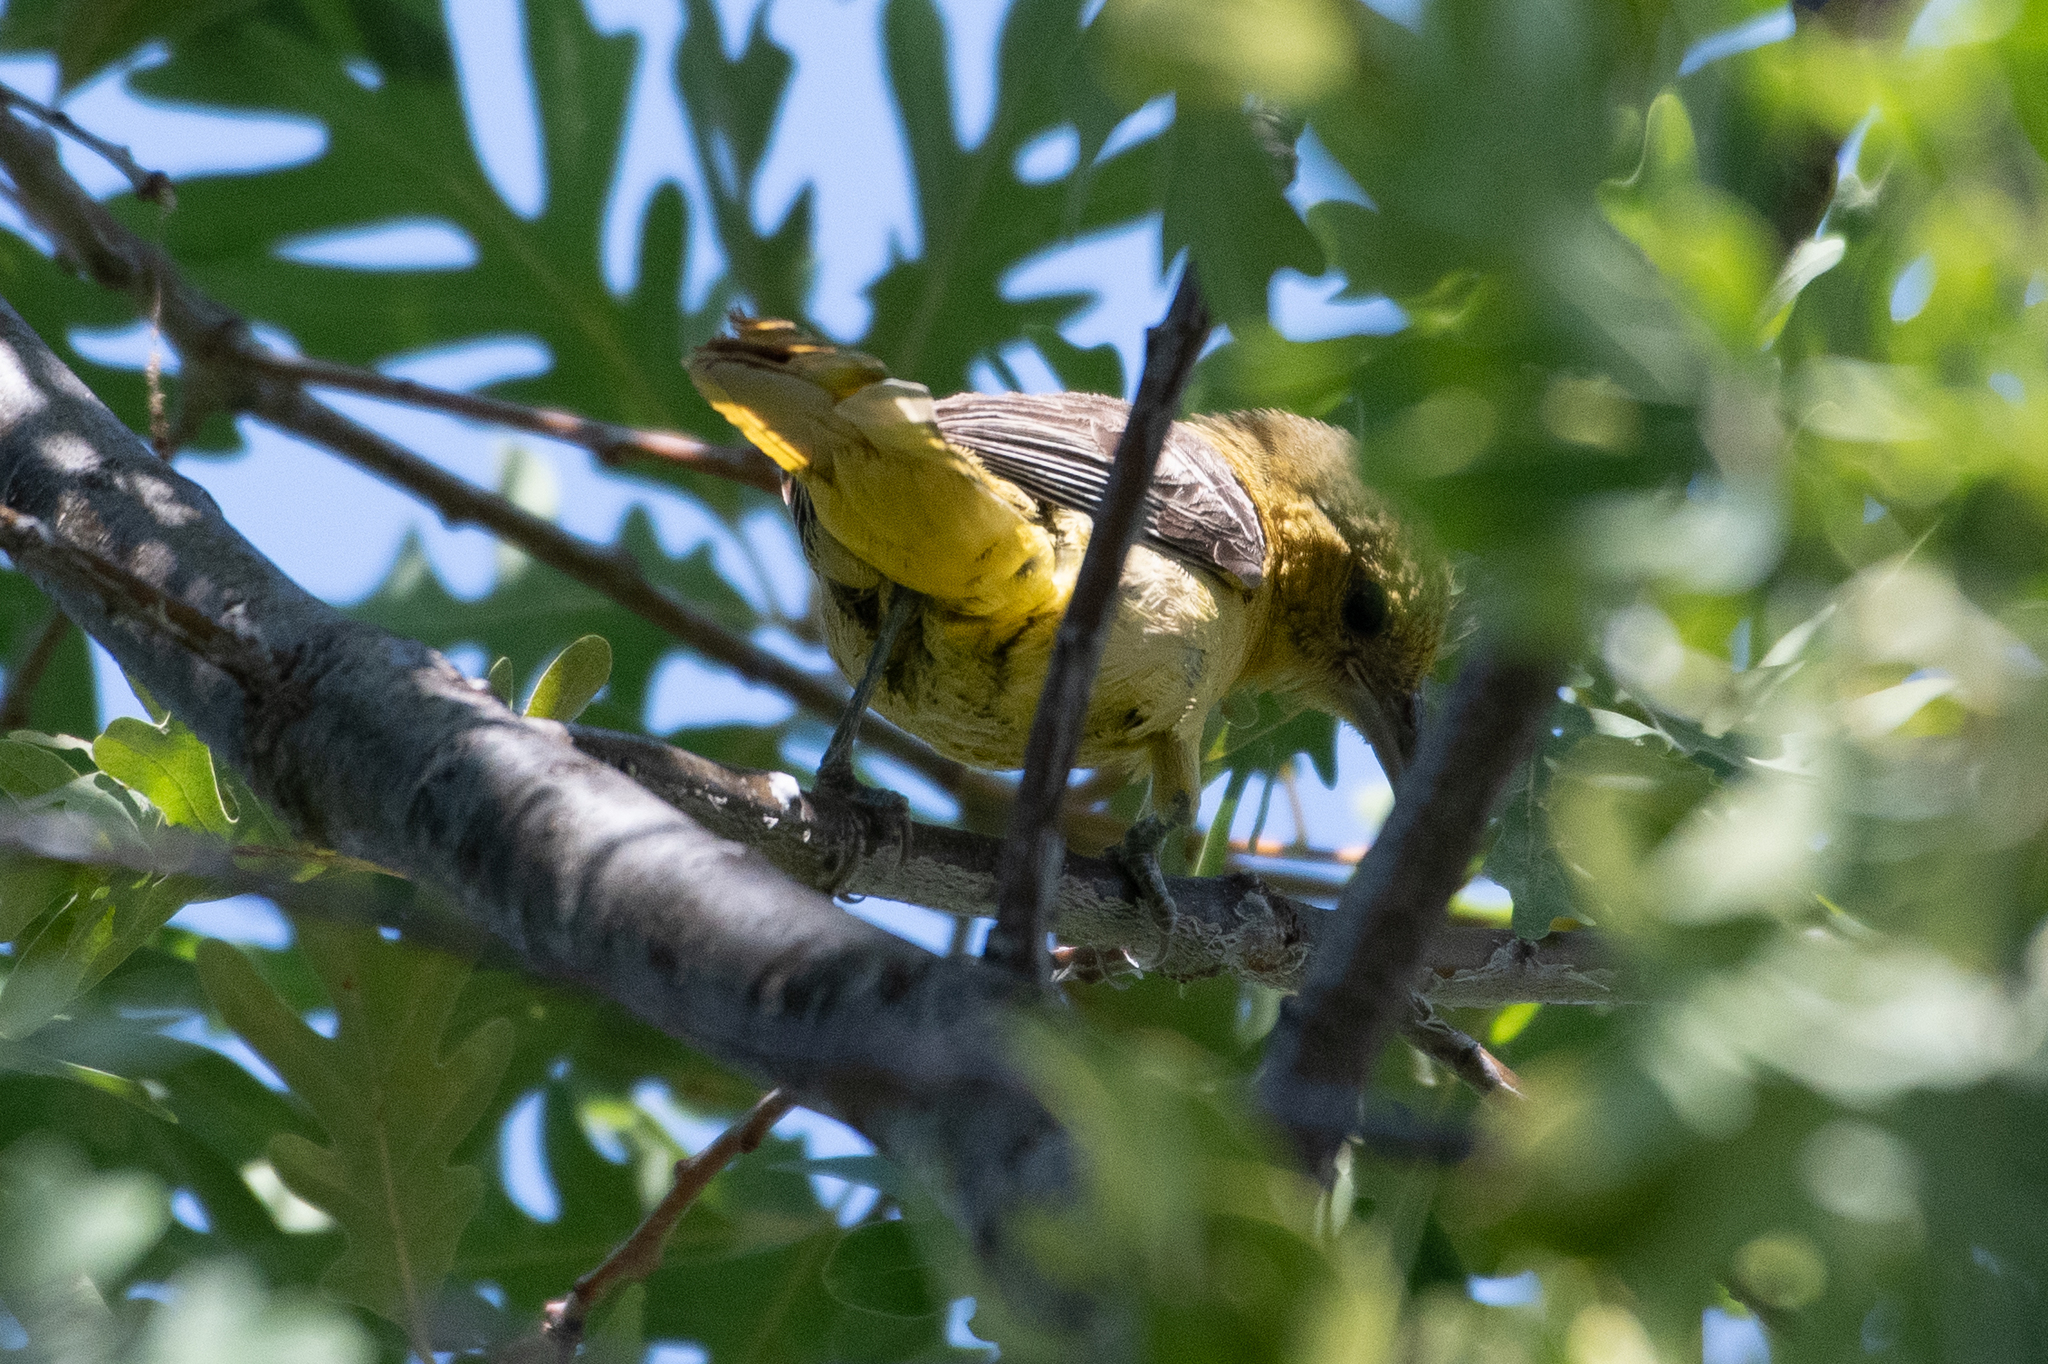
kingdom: Animalia
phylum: Chordata
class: Aves
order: Passeriformes
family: Icteridae
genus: Icterus
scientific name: Icterus cucullatus
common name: Hooded oriole
